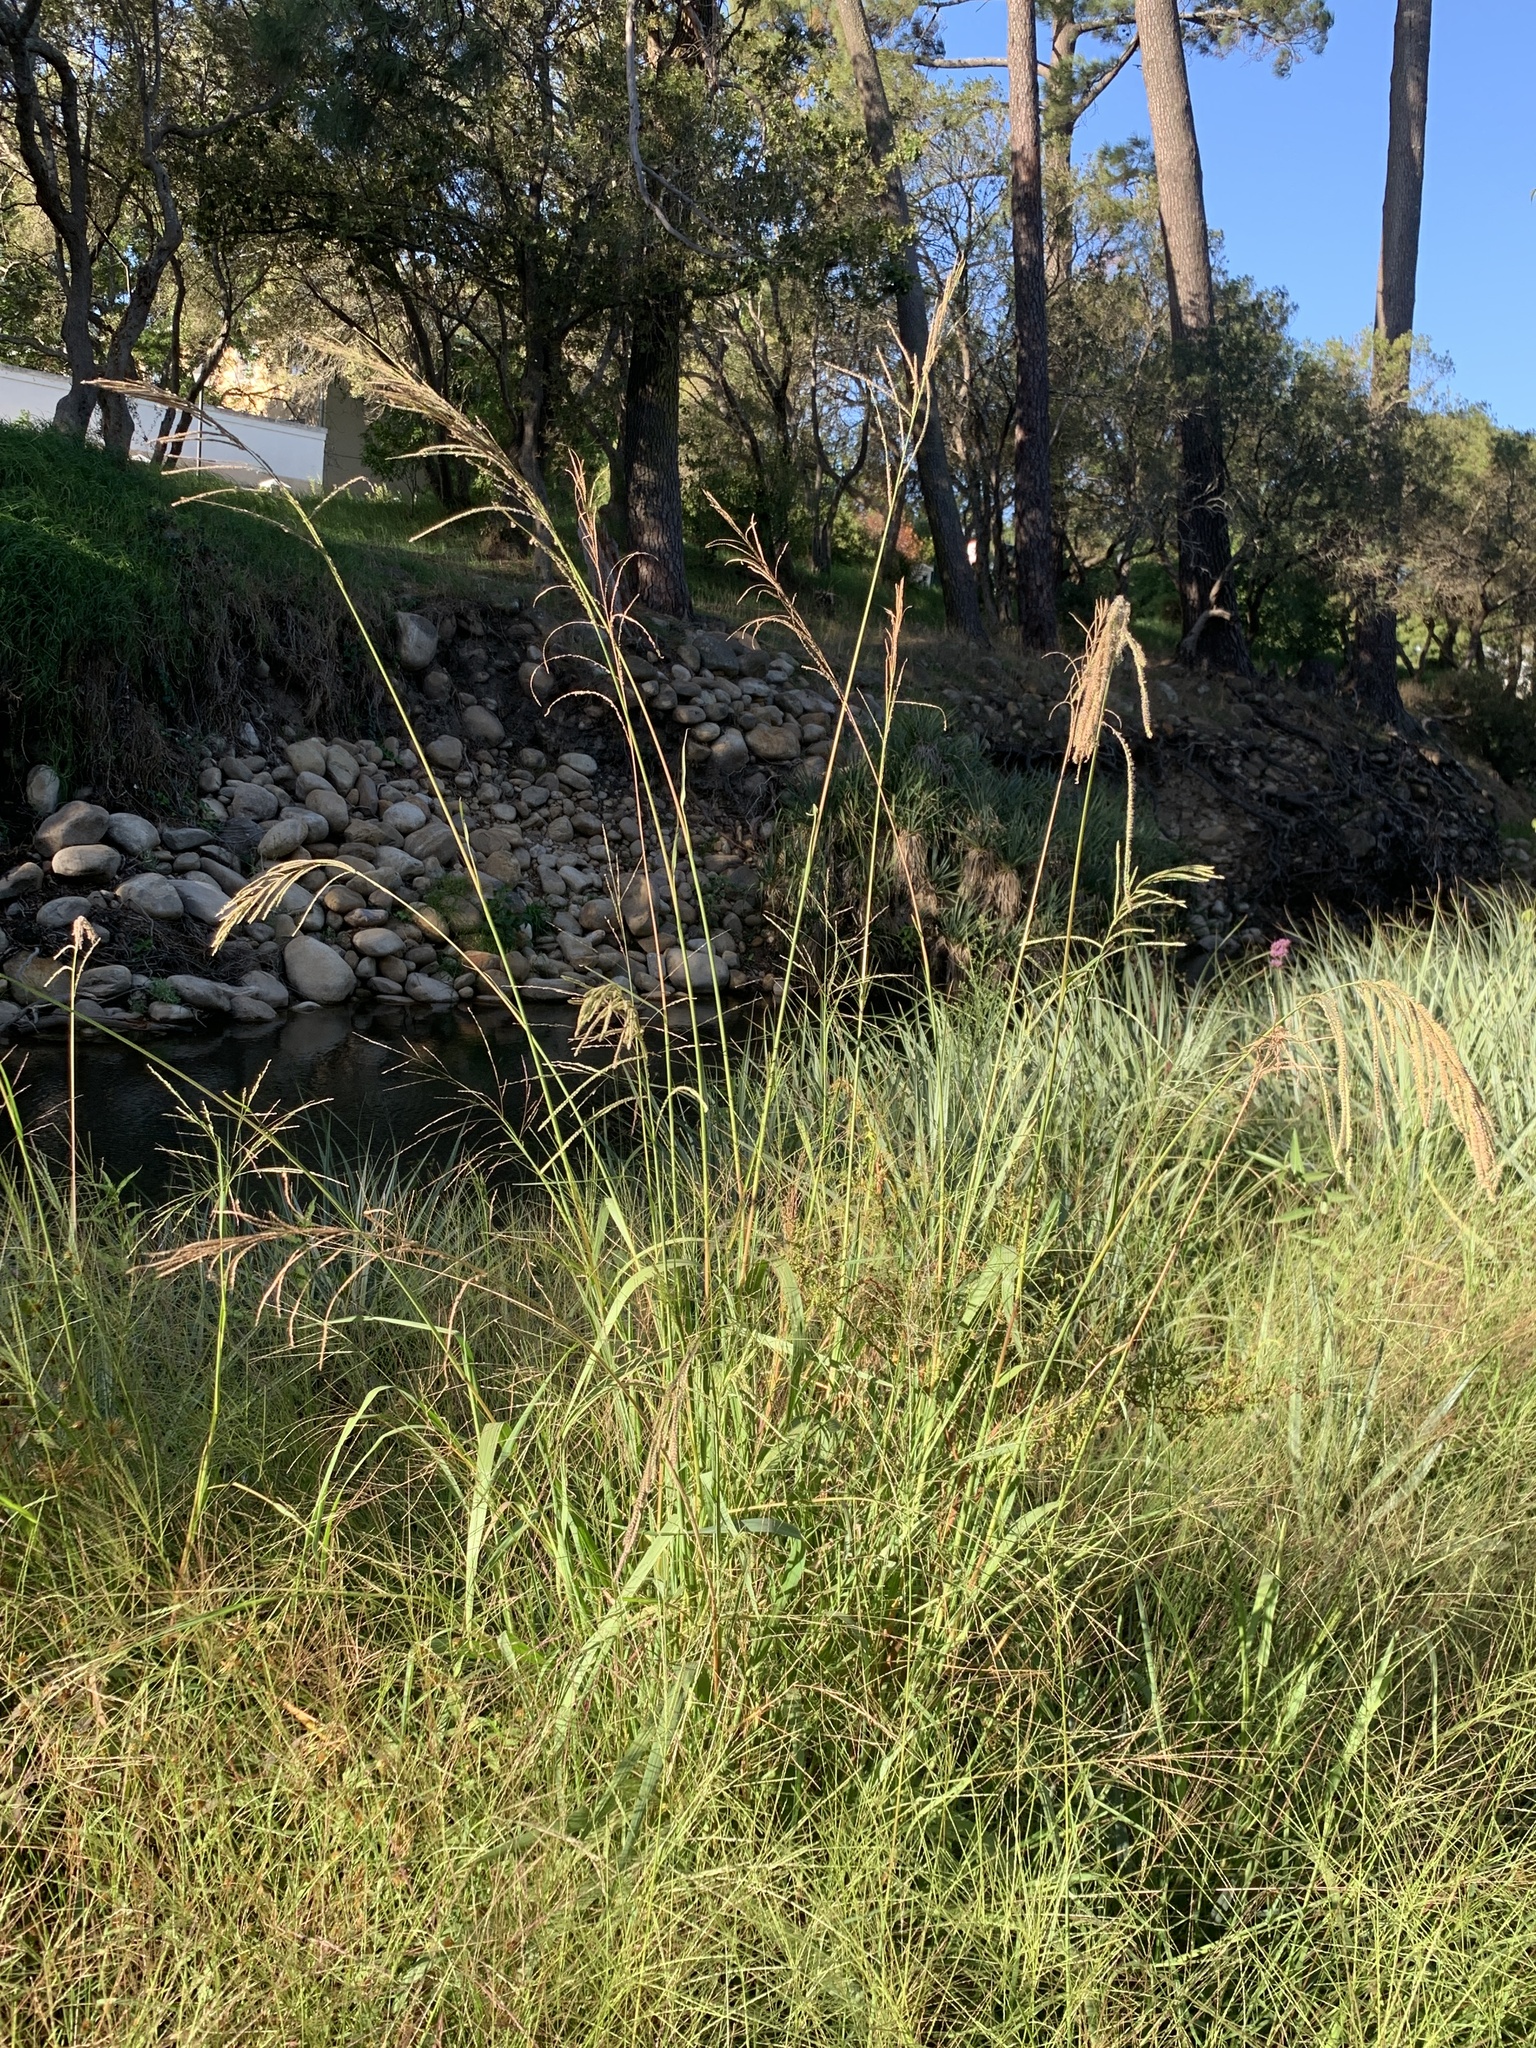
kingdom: Plantae
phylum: Tracheophyta
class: Liliopsida
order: Poales
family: Poaceae
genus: Paspalum
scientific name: Paspalum urvillei
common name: Vasey's grass
